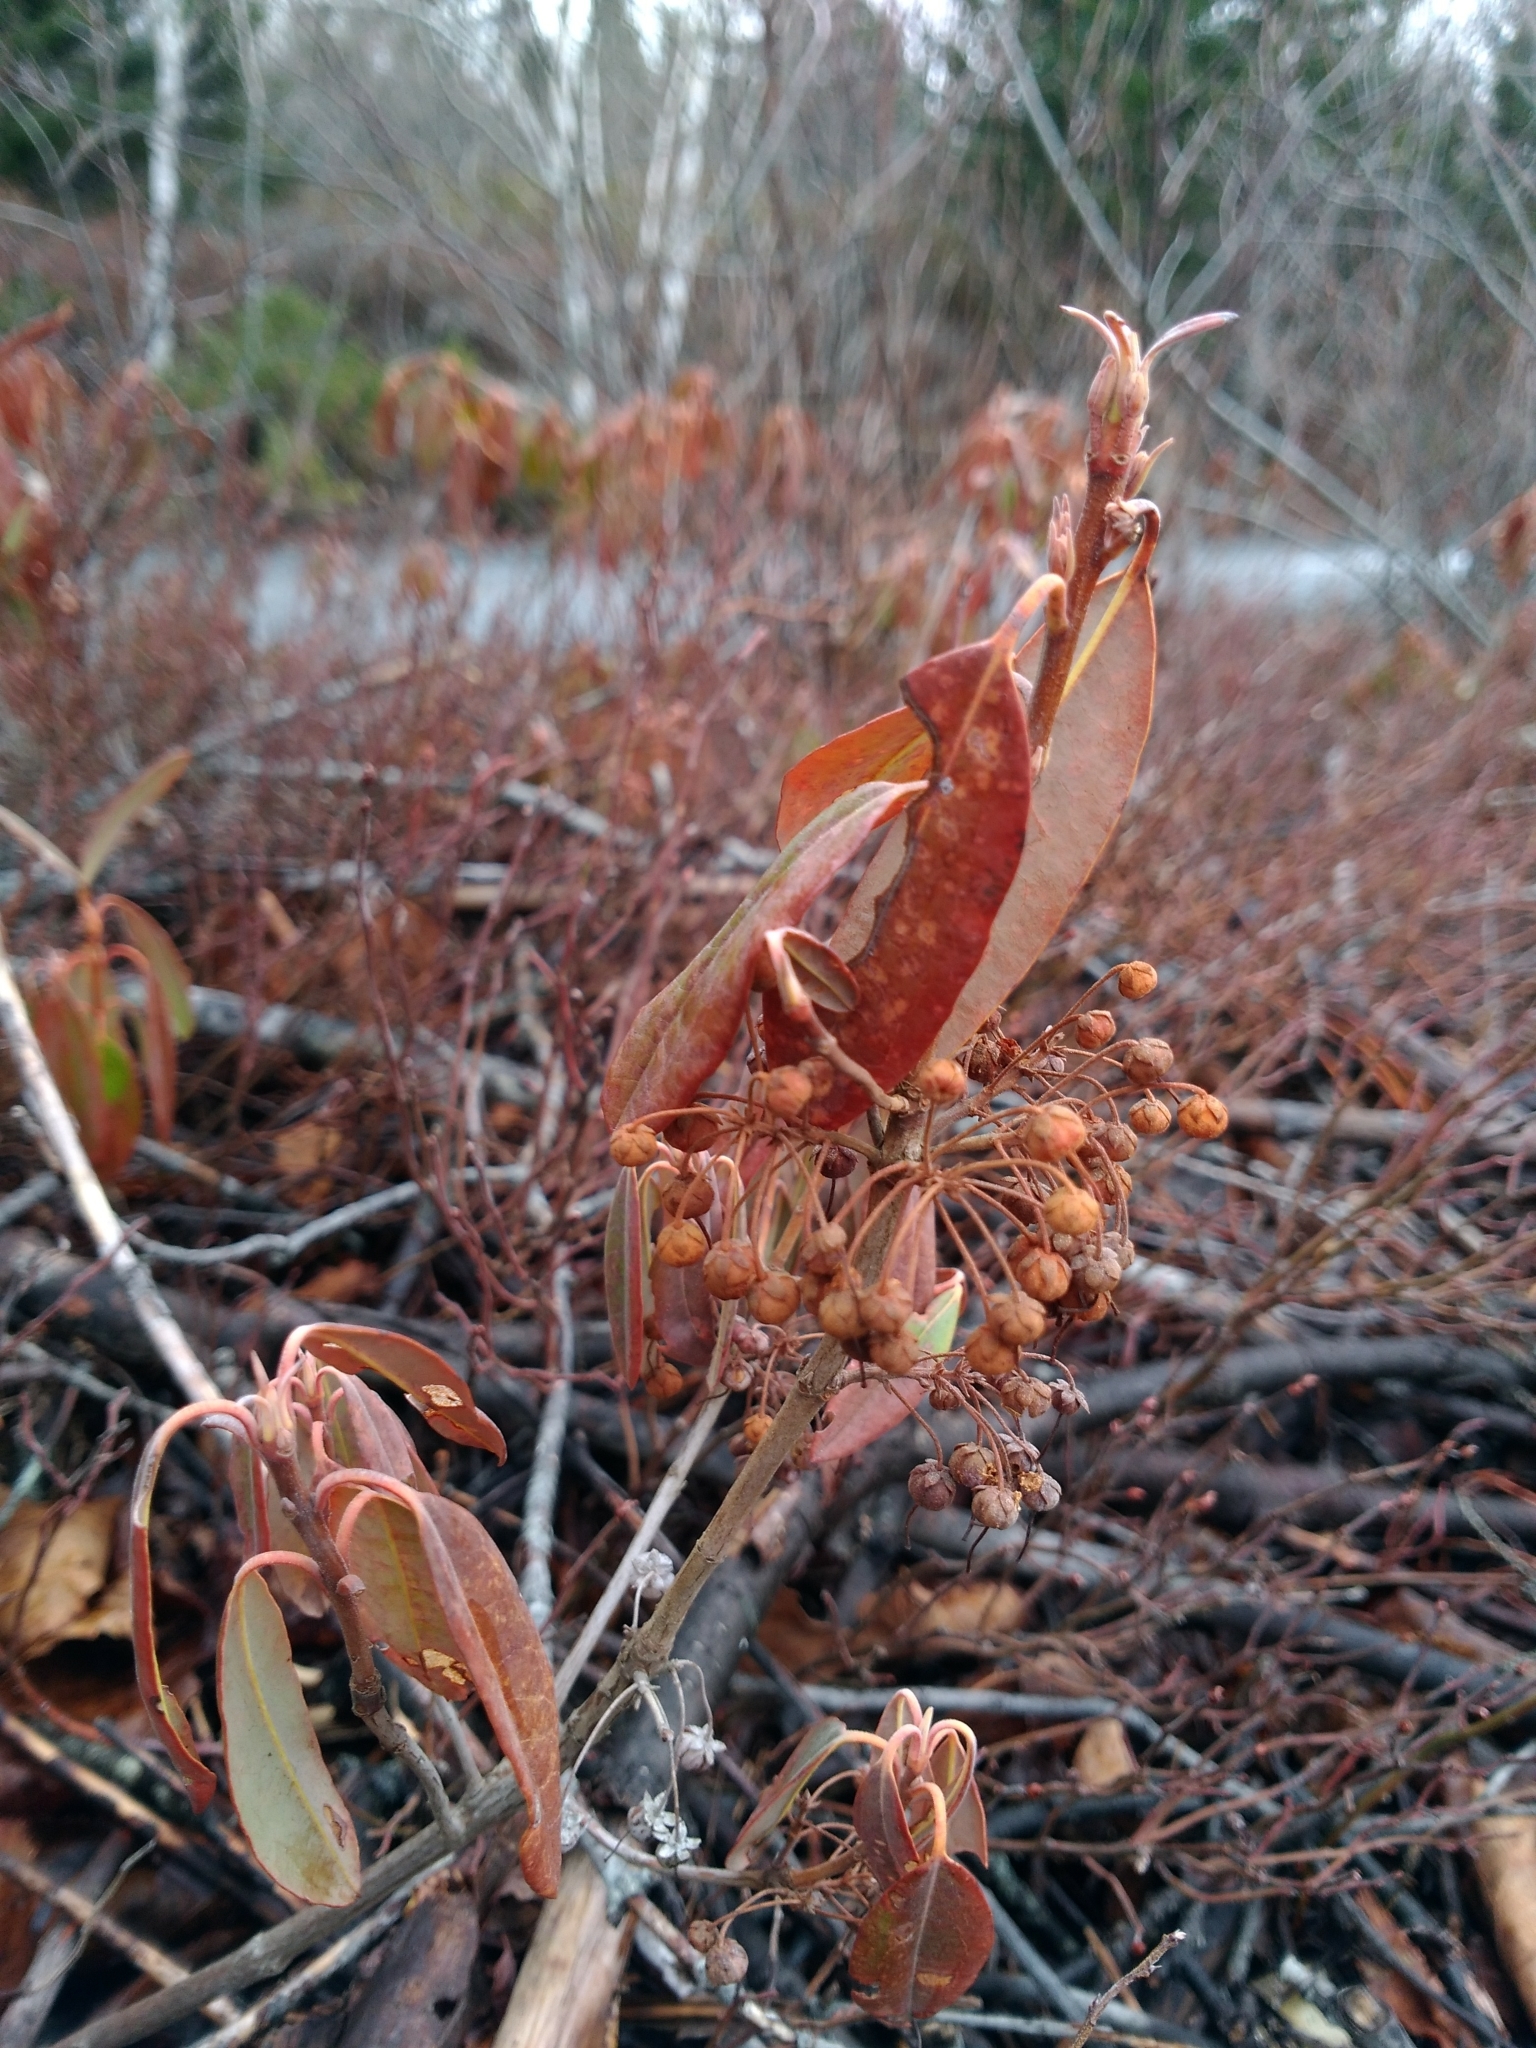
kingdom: Plantae
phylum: Tracheophyta
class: Magnoliopsida
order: Ericales
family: Ericaceae
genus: Kalmia
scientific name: Kalmia angustifolia
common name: Sheep-laurel
